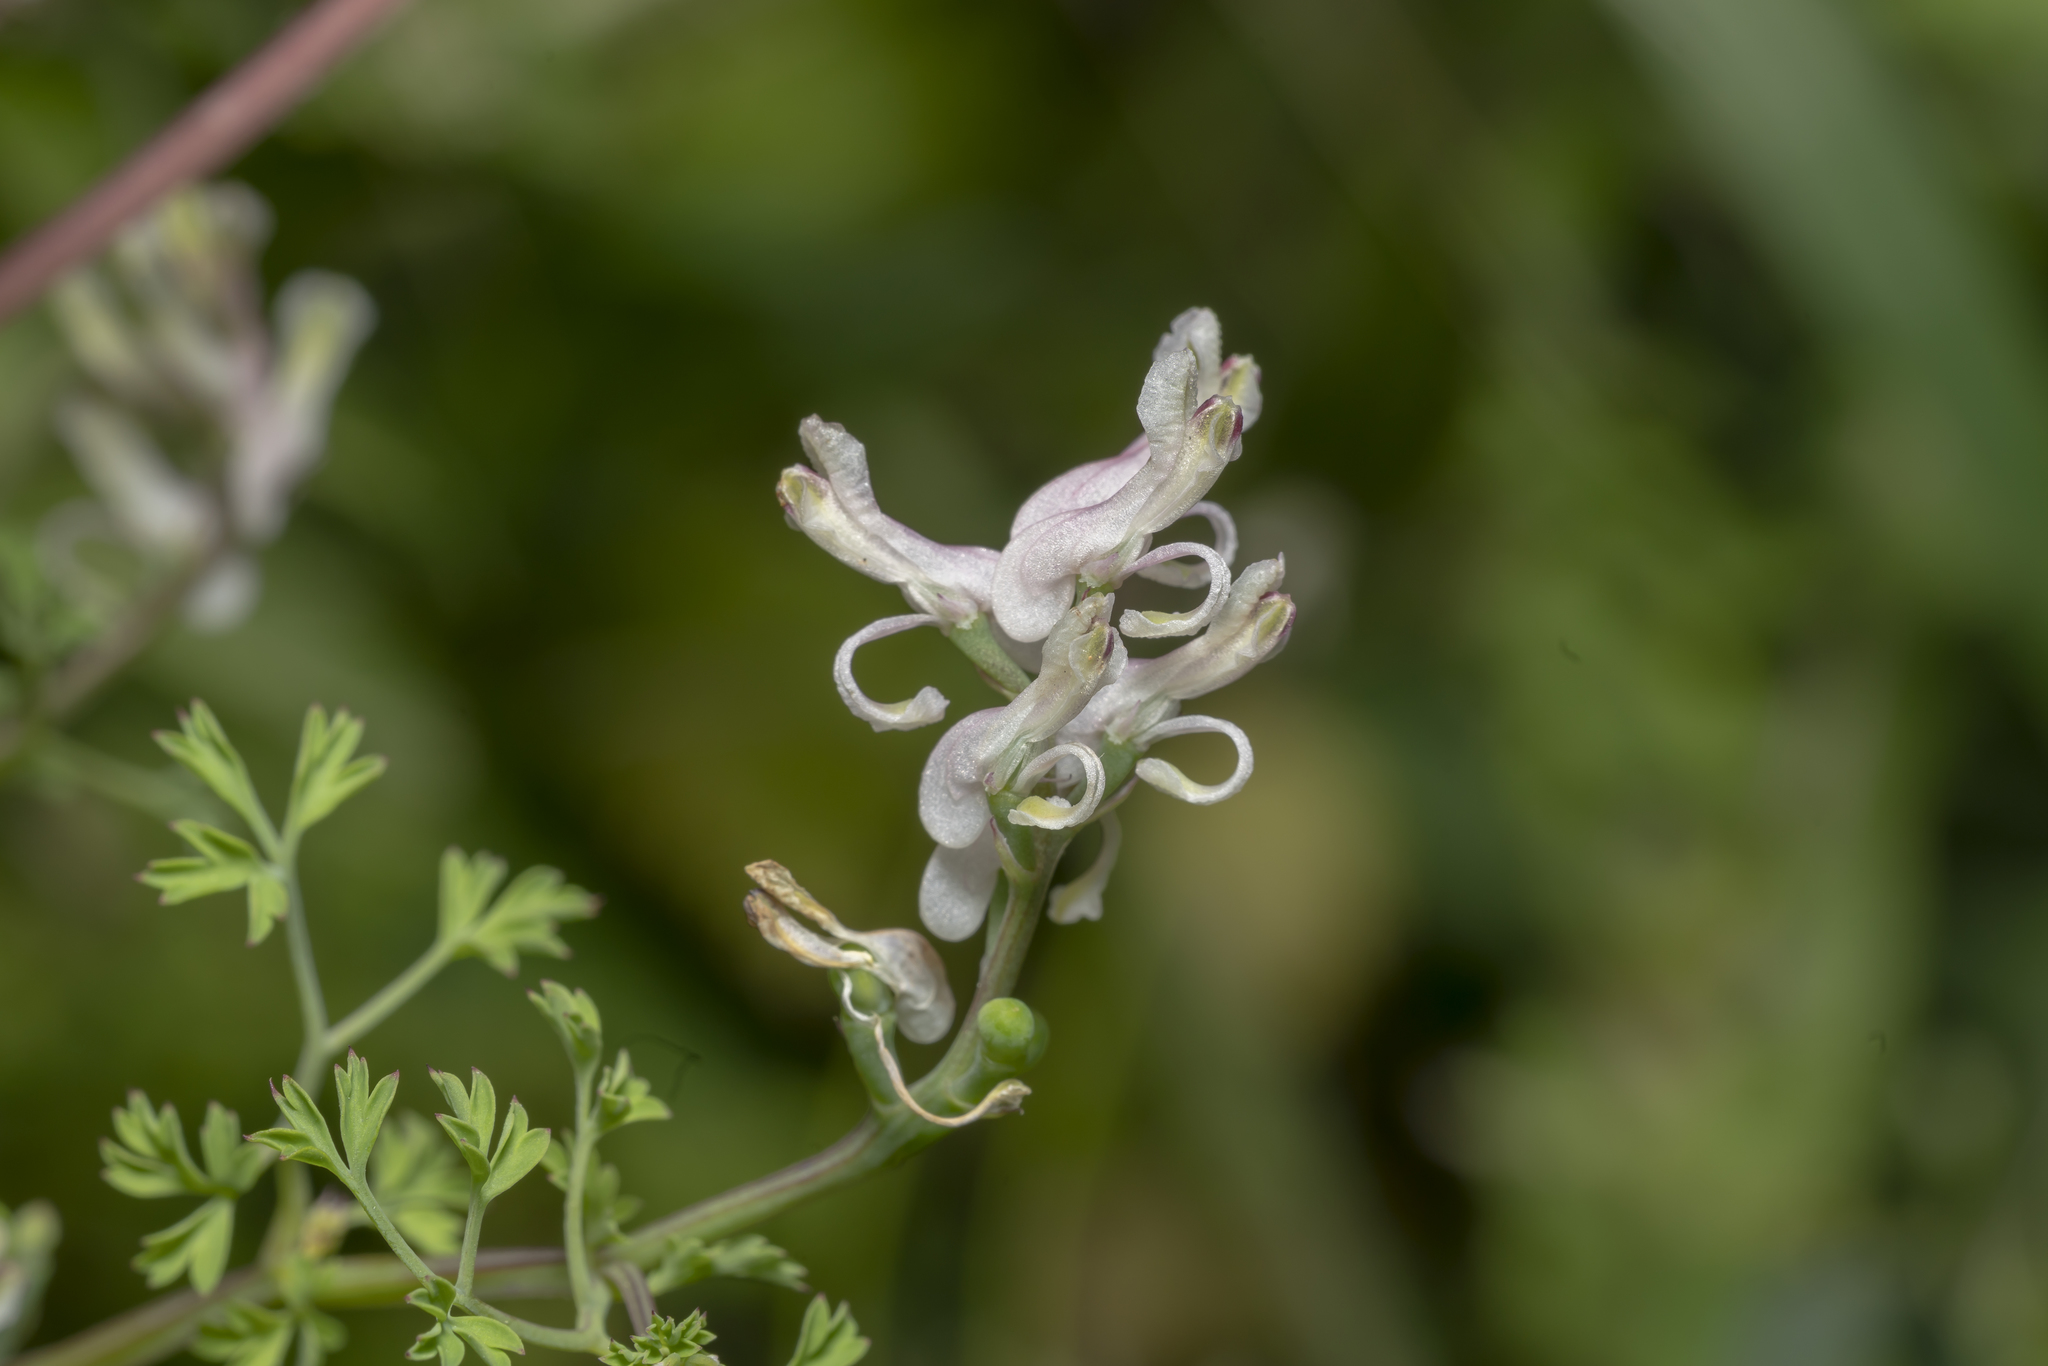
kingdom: Plantae
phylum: Tracheophyta
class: Magnoliopsida
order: Ranunculales
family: Papaveraceae
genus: Fumaria
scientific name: Fumaria macrocarpa
